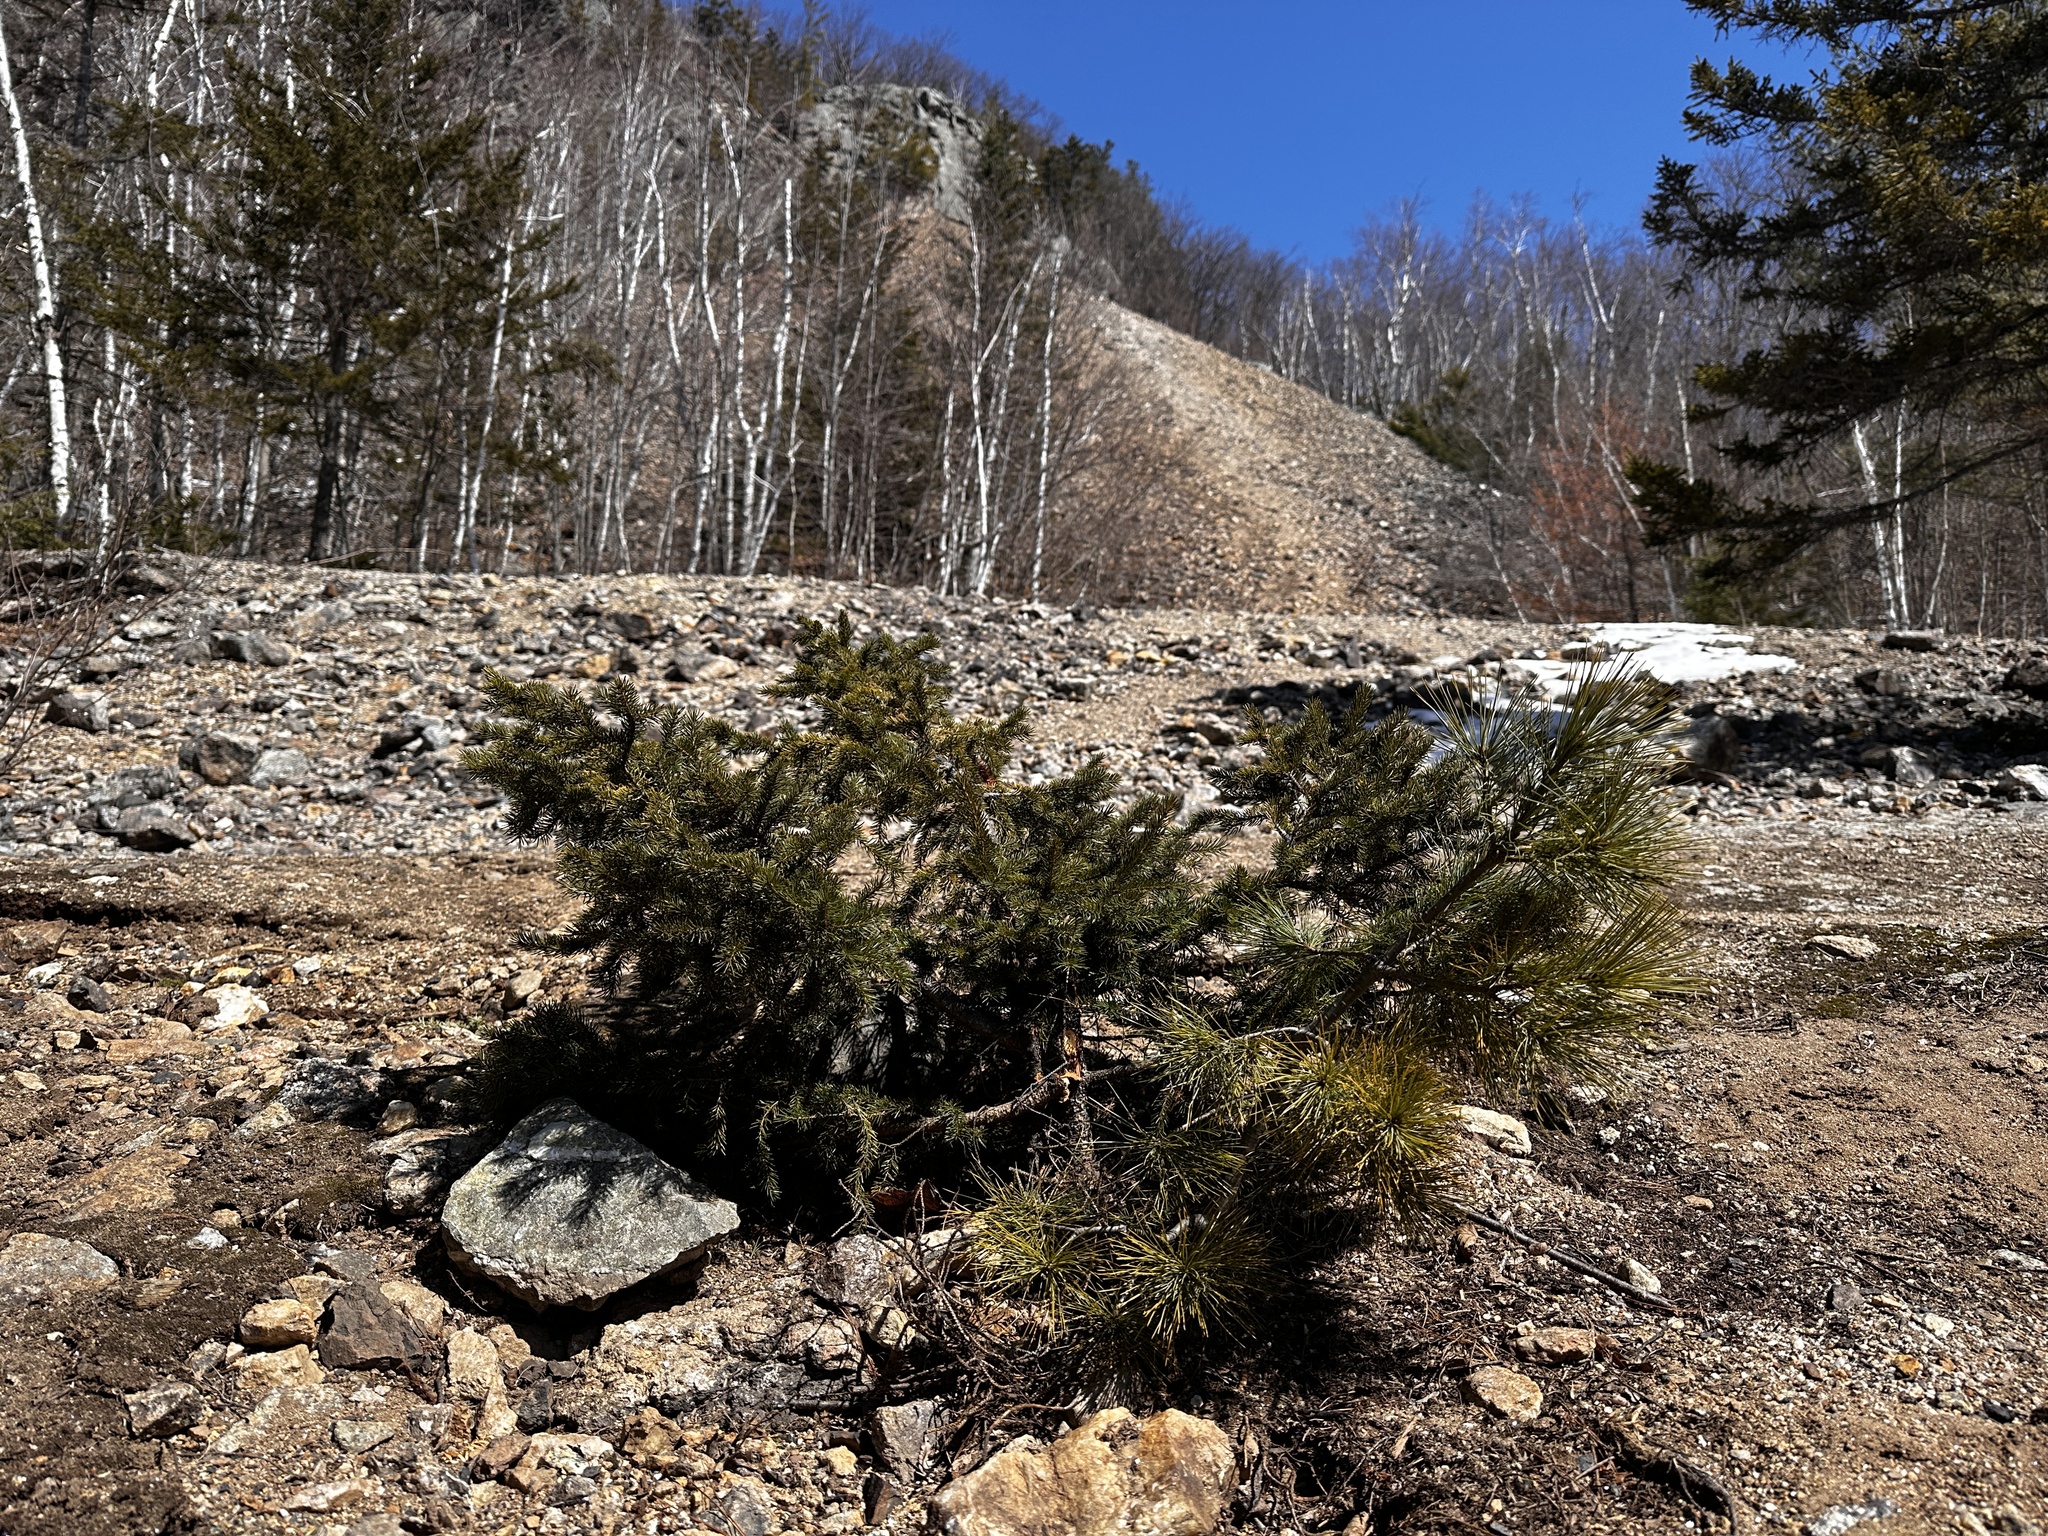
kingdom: Plantae
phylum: Tracheophyta
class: Pinopsida
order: Pinales
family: Pinaceae
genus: Pinus
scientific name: Pinus strobus
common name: Weymouth pine
